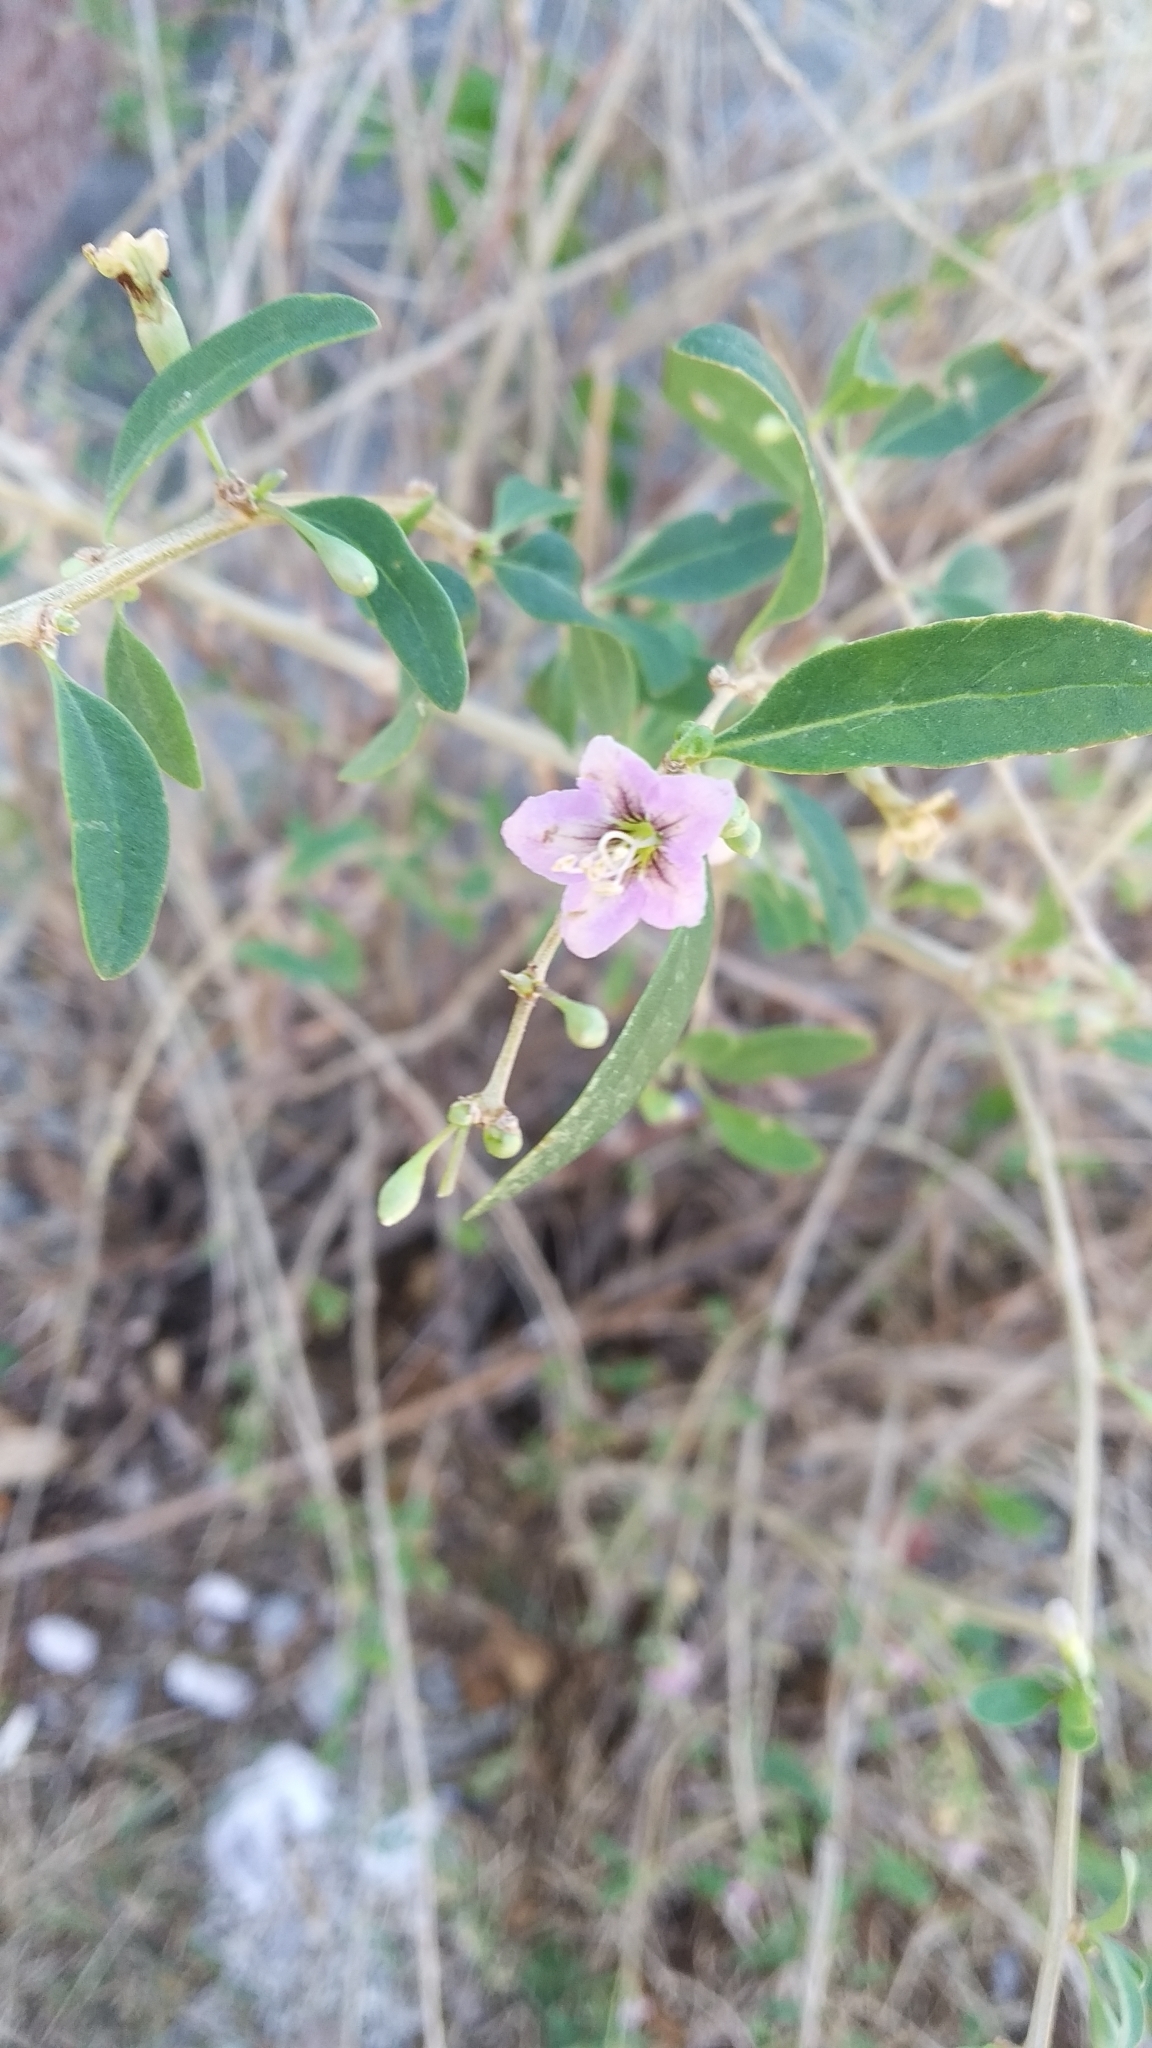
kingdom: Plantae
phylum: Tracheophyta
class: Magnoliopsida
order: Solanales
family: Solanaceae
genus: Lycium
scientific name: Lycium barbarum
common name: Duke of argyll's teaplant
